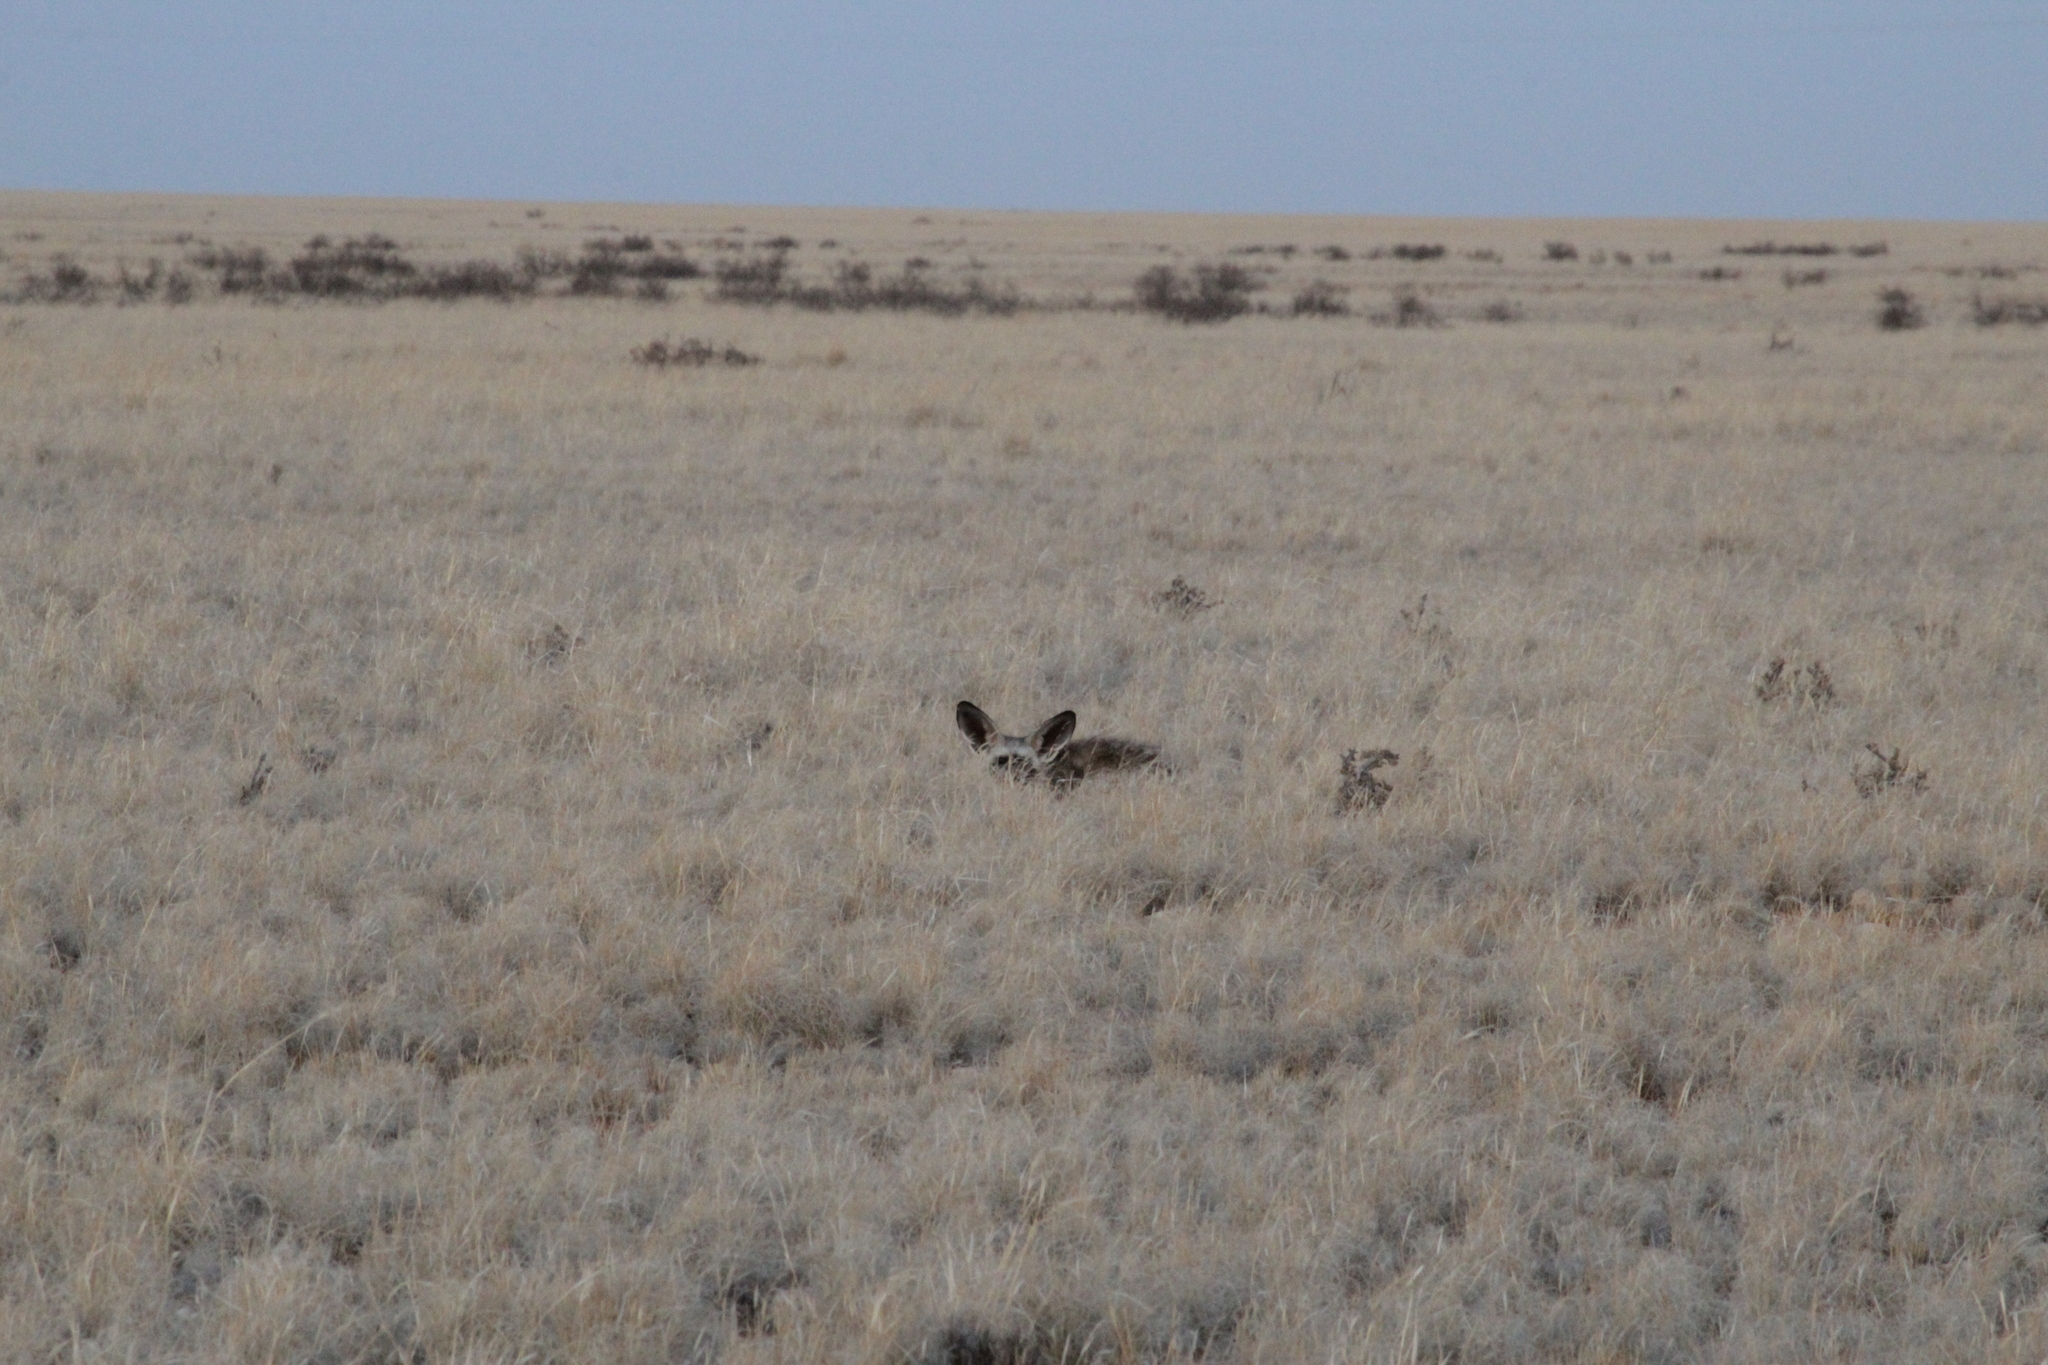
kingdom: Animalia
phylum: Chordata
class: Mammalia
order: Carnivora
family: Canidae
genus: Otocyon
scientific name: Otocyon megalotis
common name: Bat-eared fox
